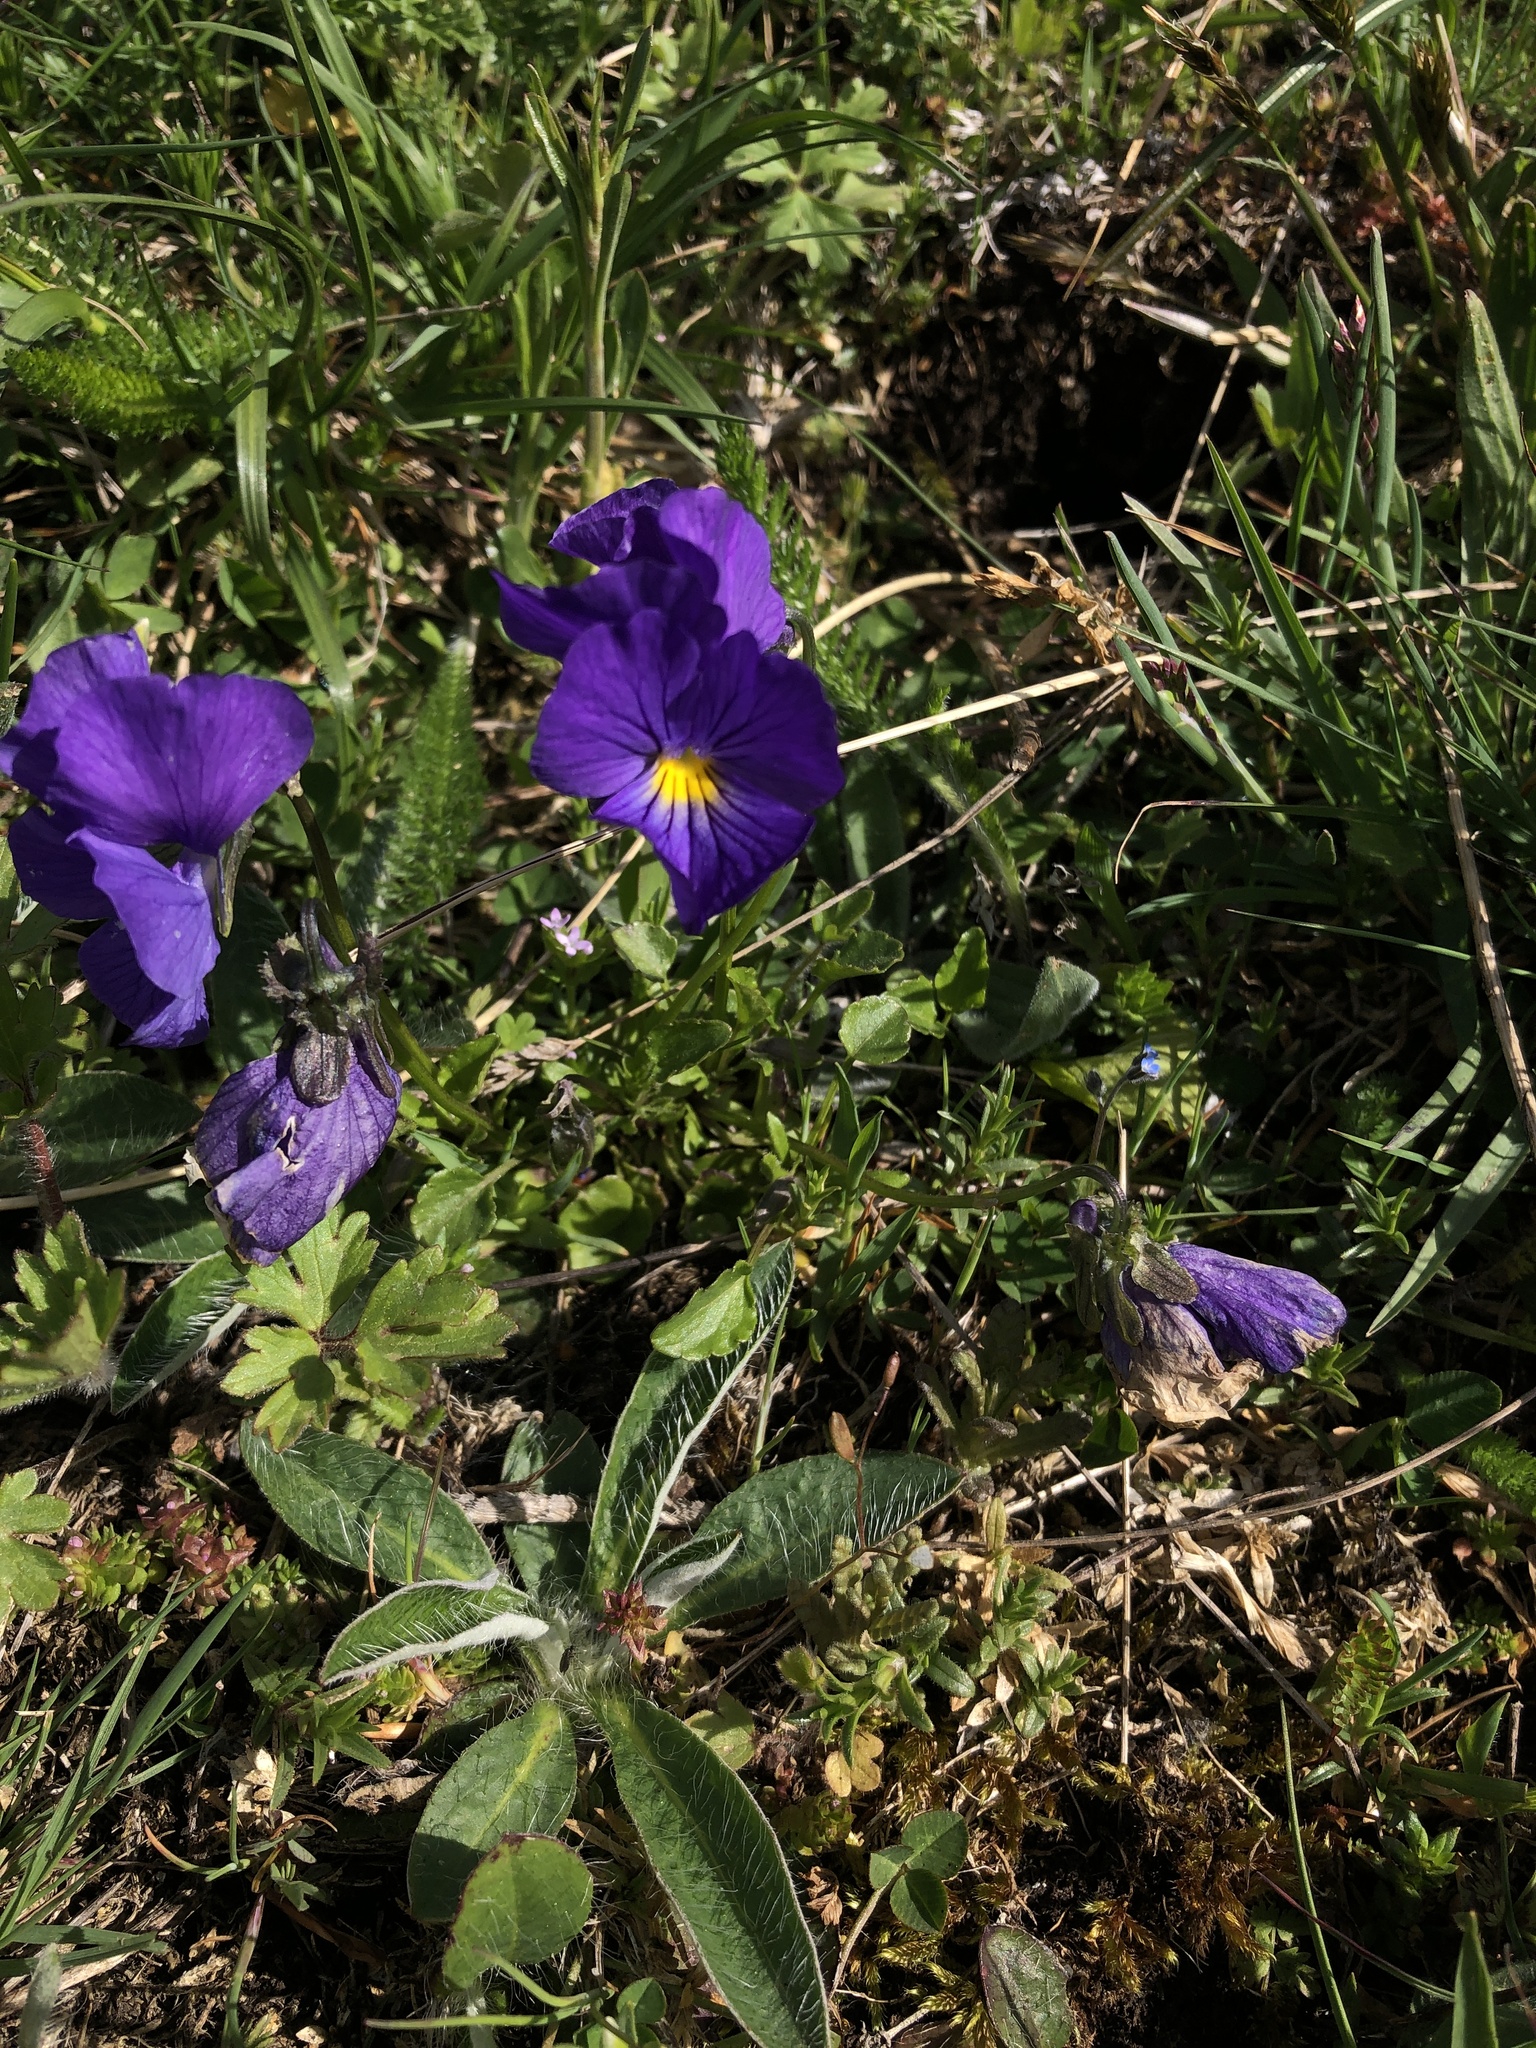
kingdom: Plantae
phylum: Tracheophyta
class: Magnoliopsida
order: Malpighiales
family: Violaceae
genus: Viola
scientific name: Viola eugeniae
